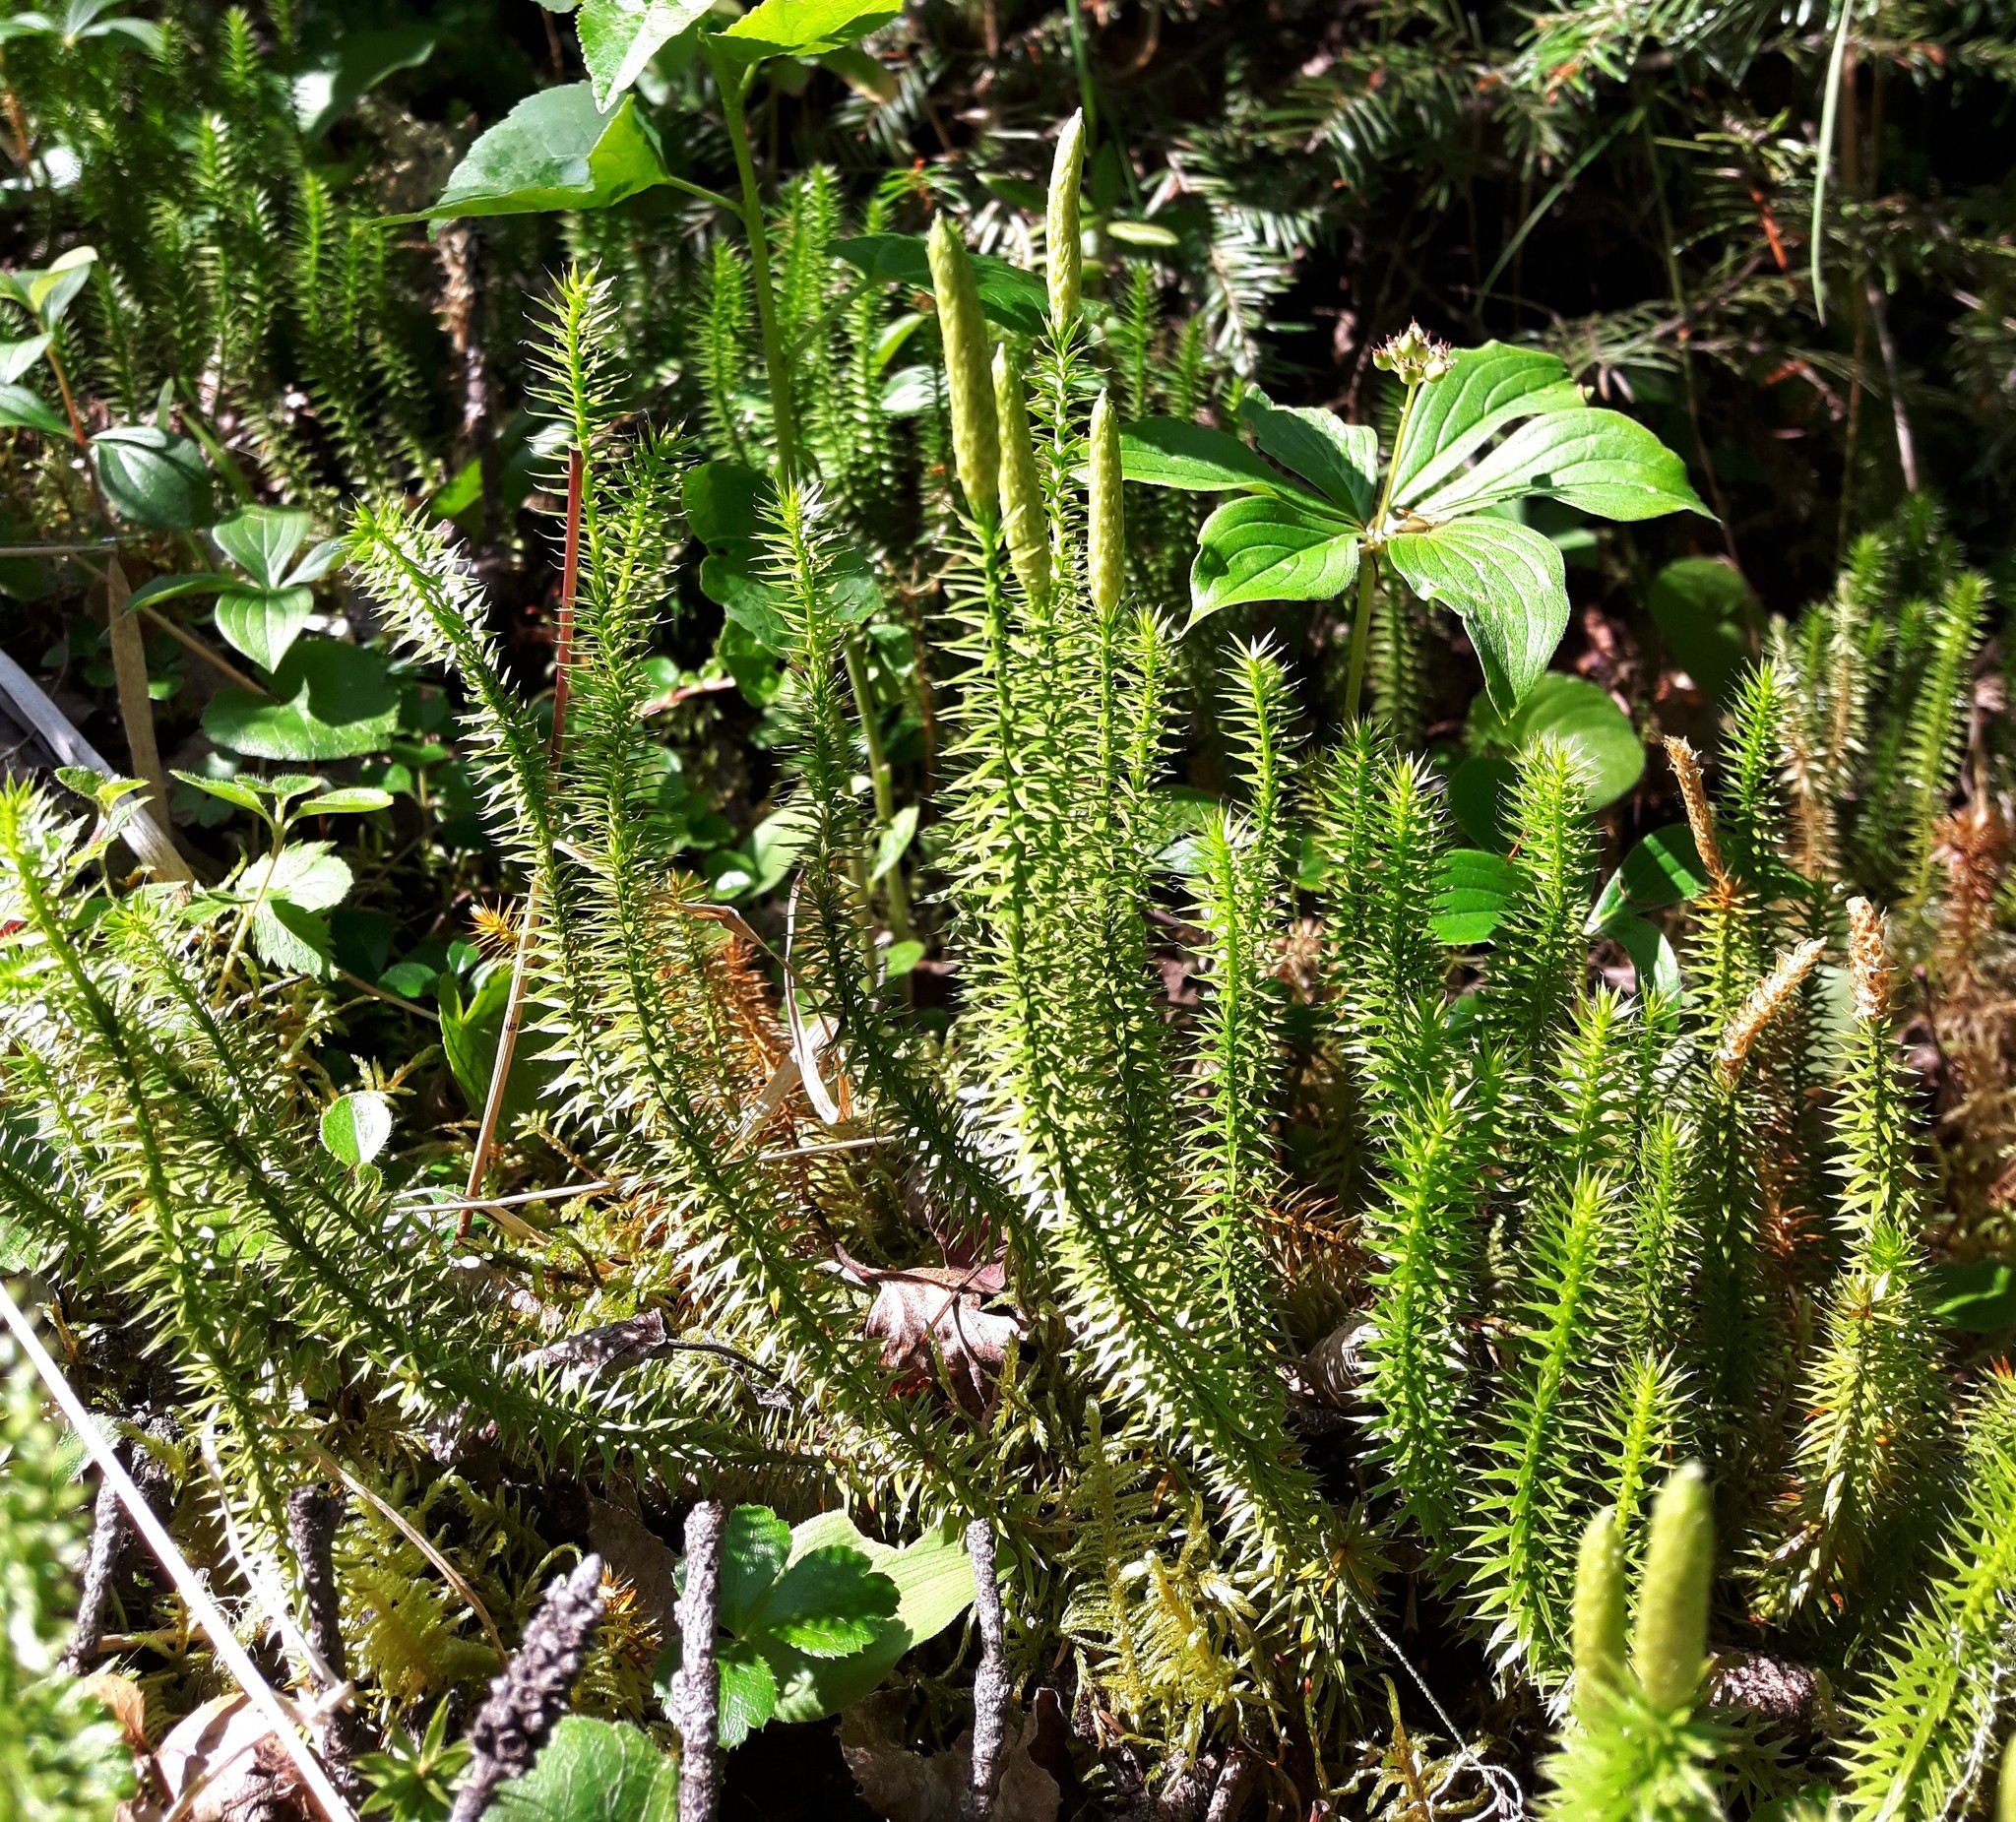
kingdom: Plantae
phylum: Tracheophyta
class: Lycopodiopsida
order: Lycopodiales
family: Lycopodiaceae
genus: Spinulum
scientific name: Spinulum annotinum
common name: Interrupted club-moss
